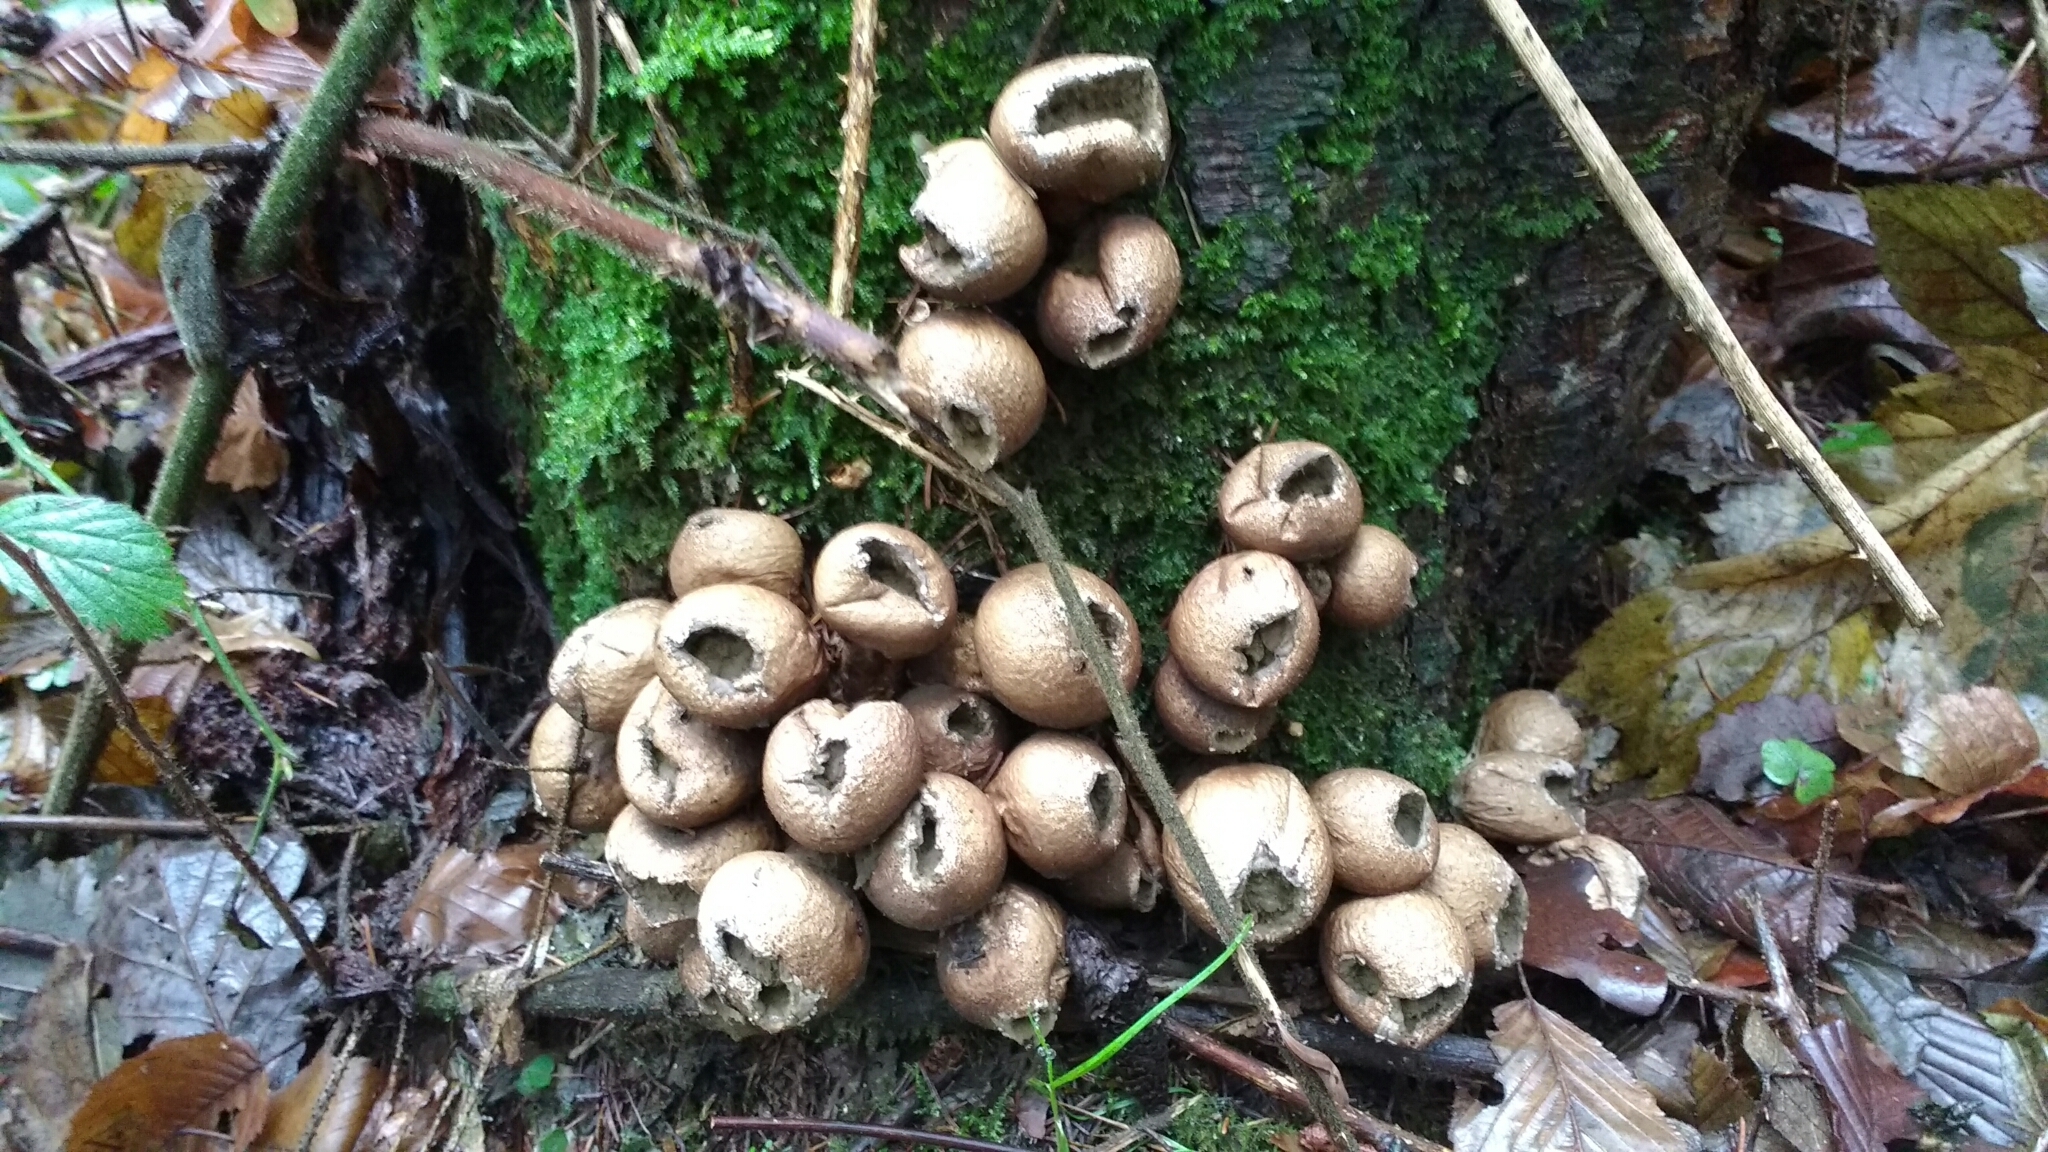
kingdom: Fungi
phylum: Basidiomycota
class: Agaricomycetes
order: Agaricales
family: Lycoperdaceae
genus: Apioperdon
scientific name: Apioperdon pyriforme
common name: Pear-shaped puffball
